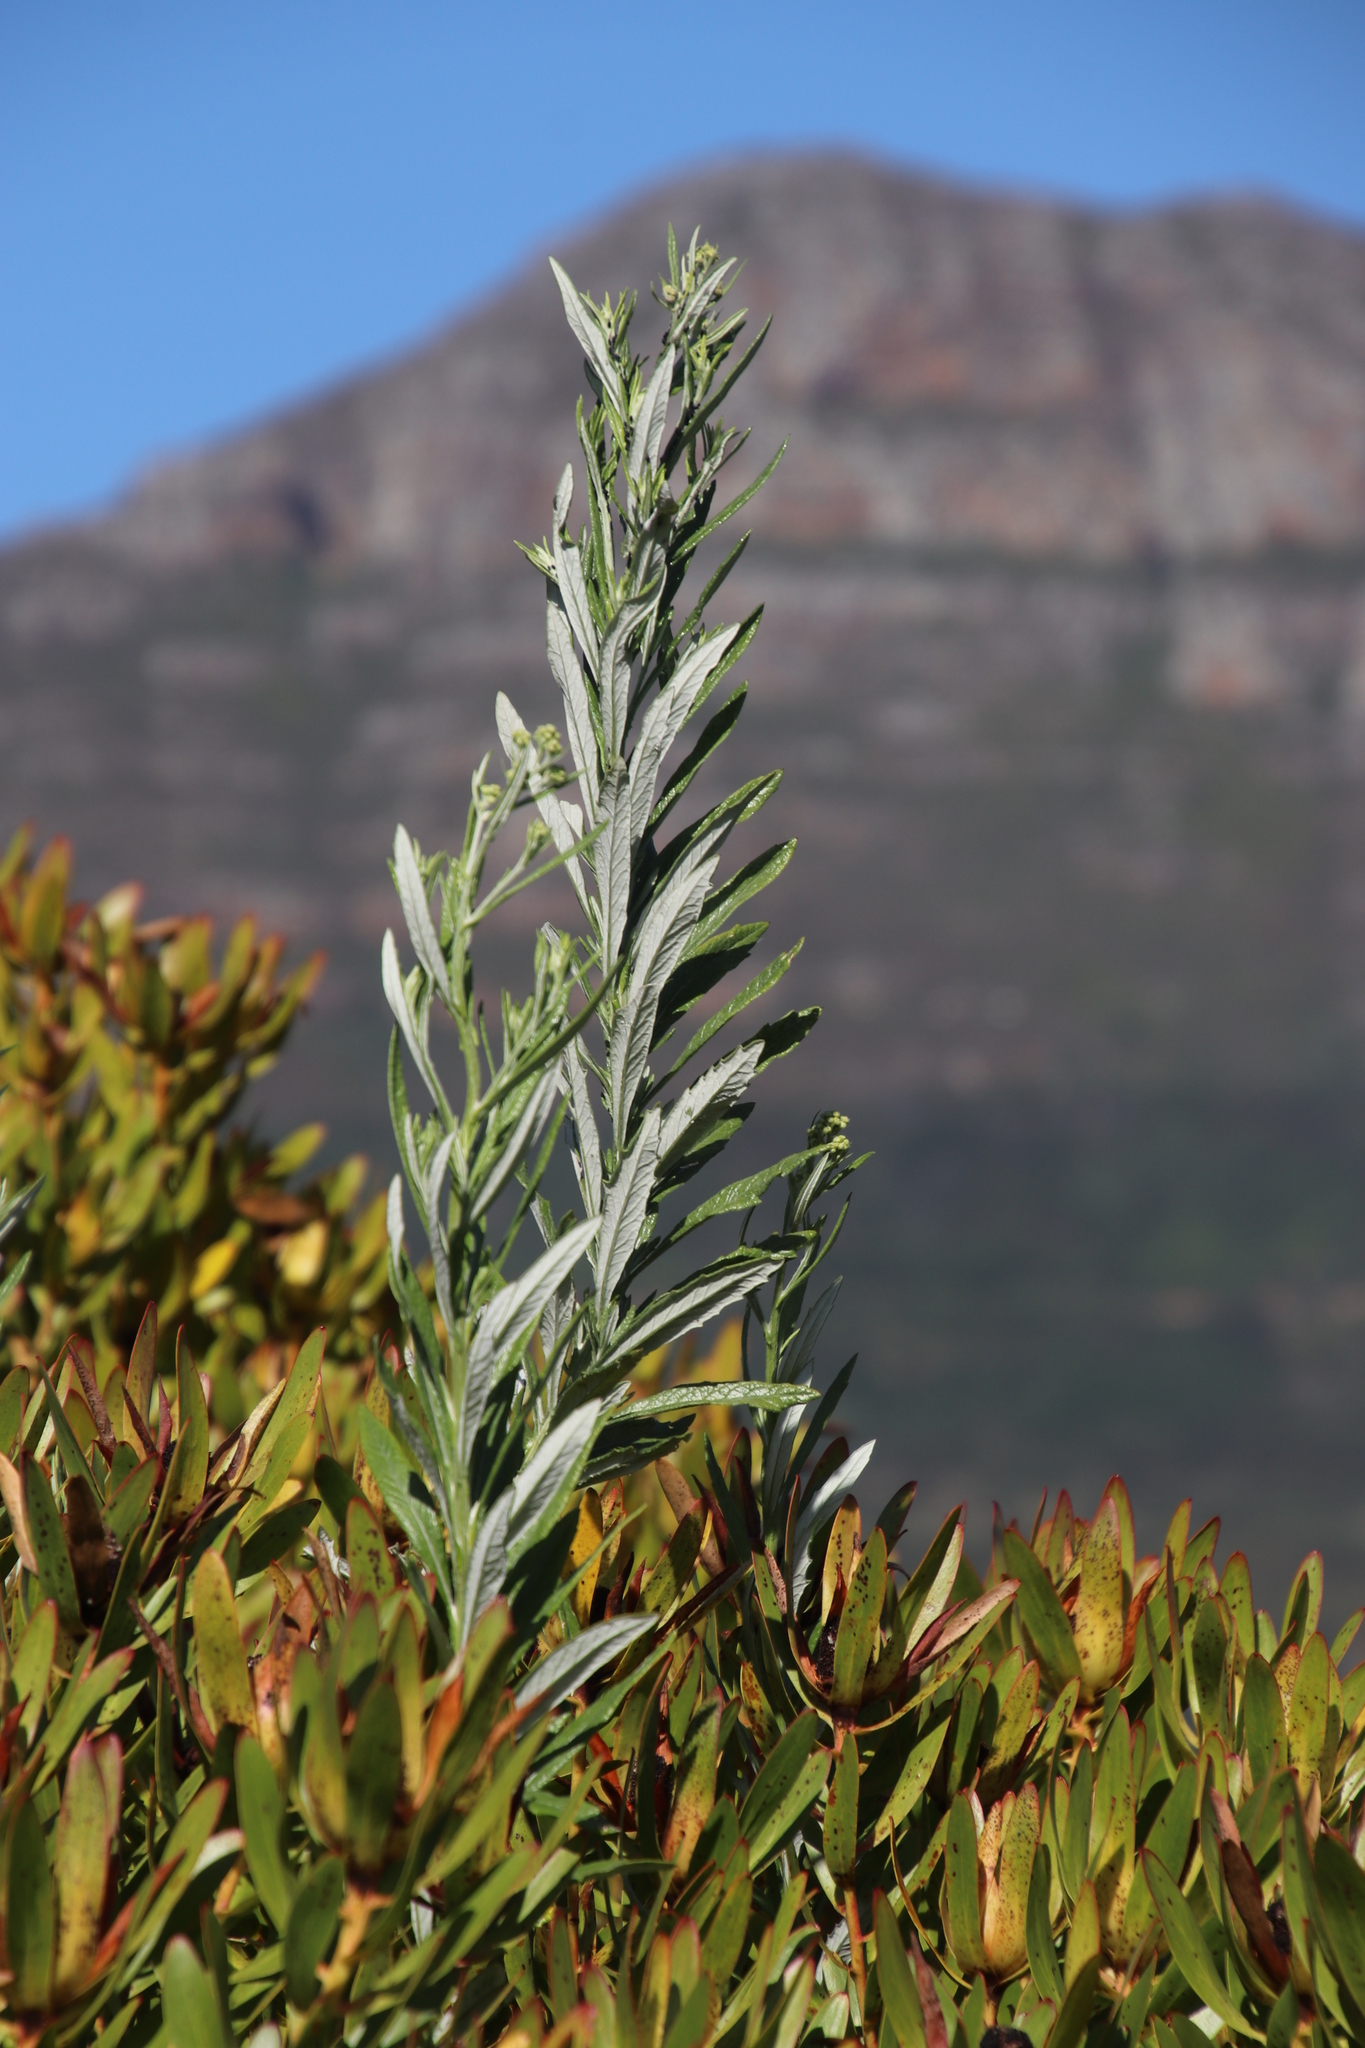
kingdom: Plantae
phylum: Tracheophyta
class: Magnoliopsida
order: Asterales
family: Asteraceae
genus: Senecio
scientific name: Senecio pterophorus
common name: Shoddy ragwort
